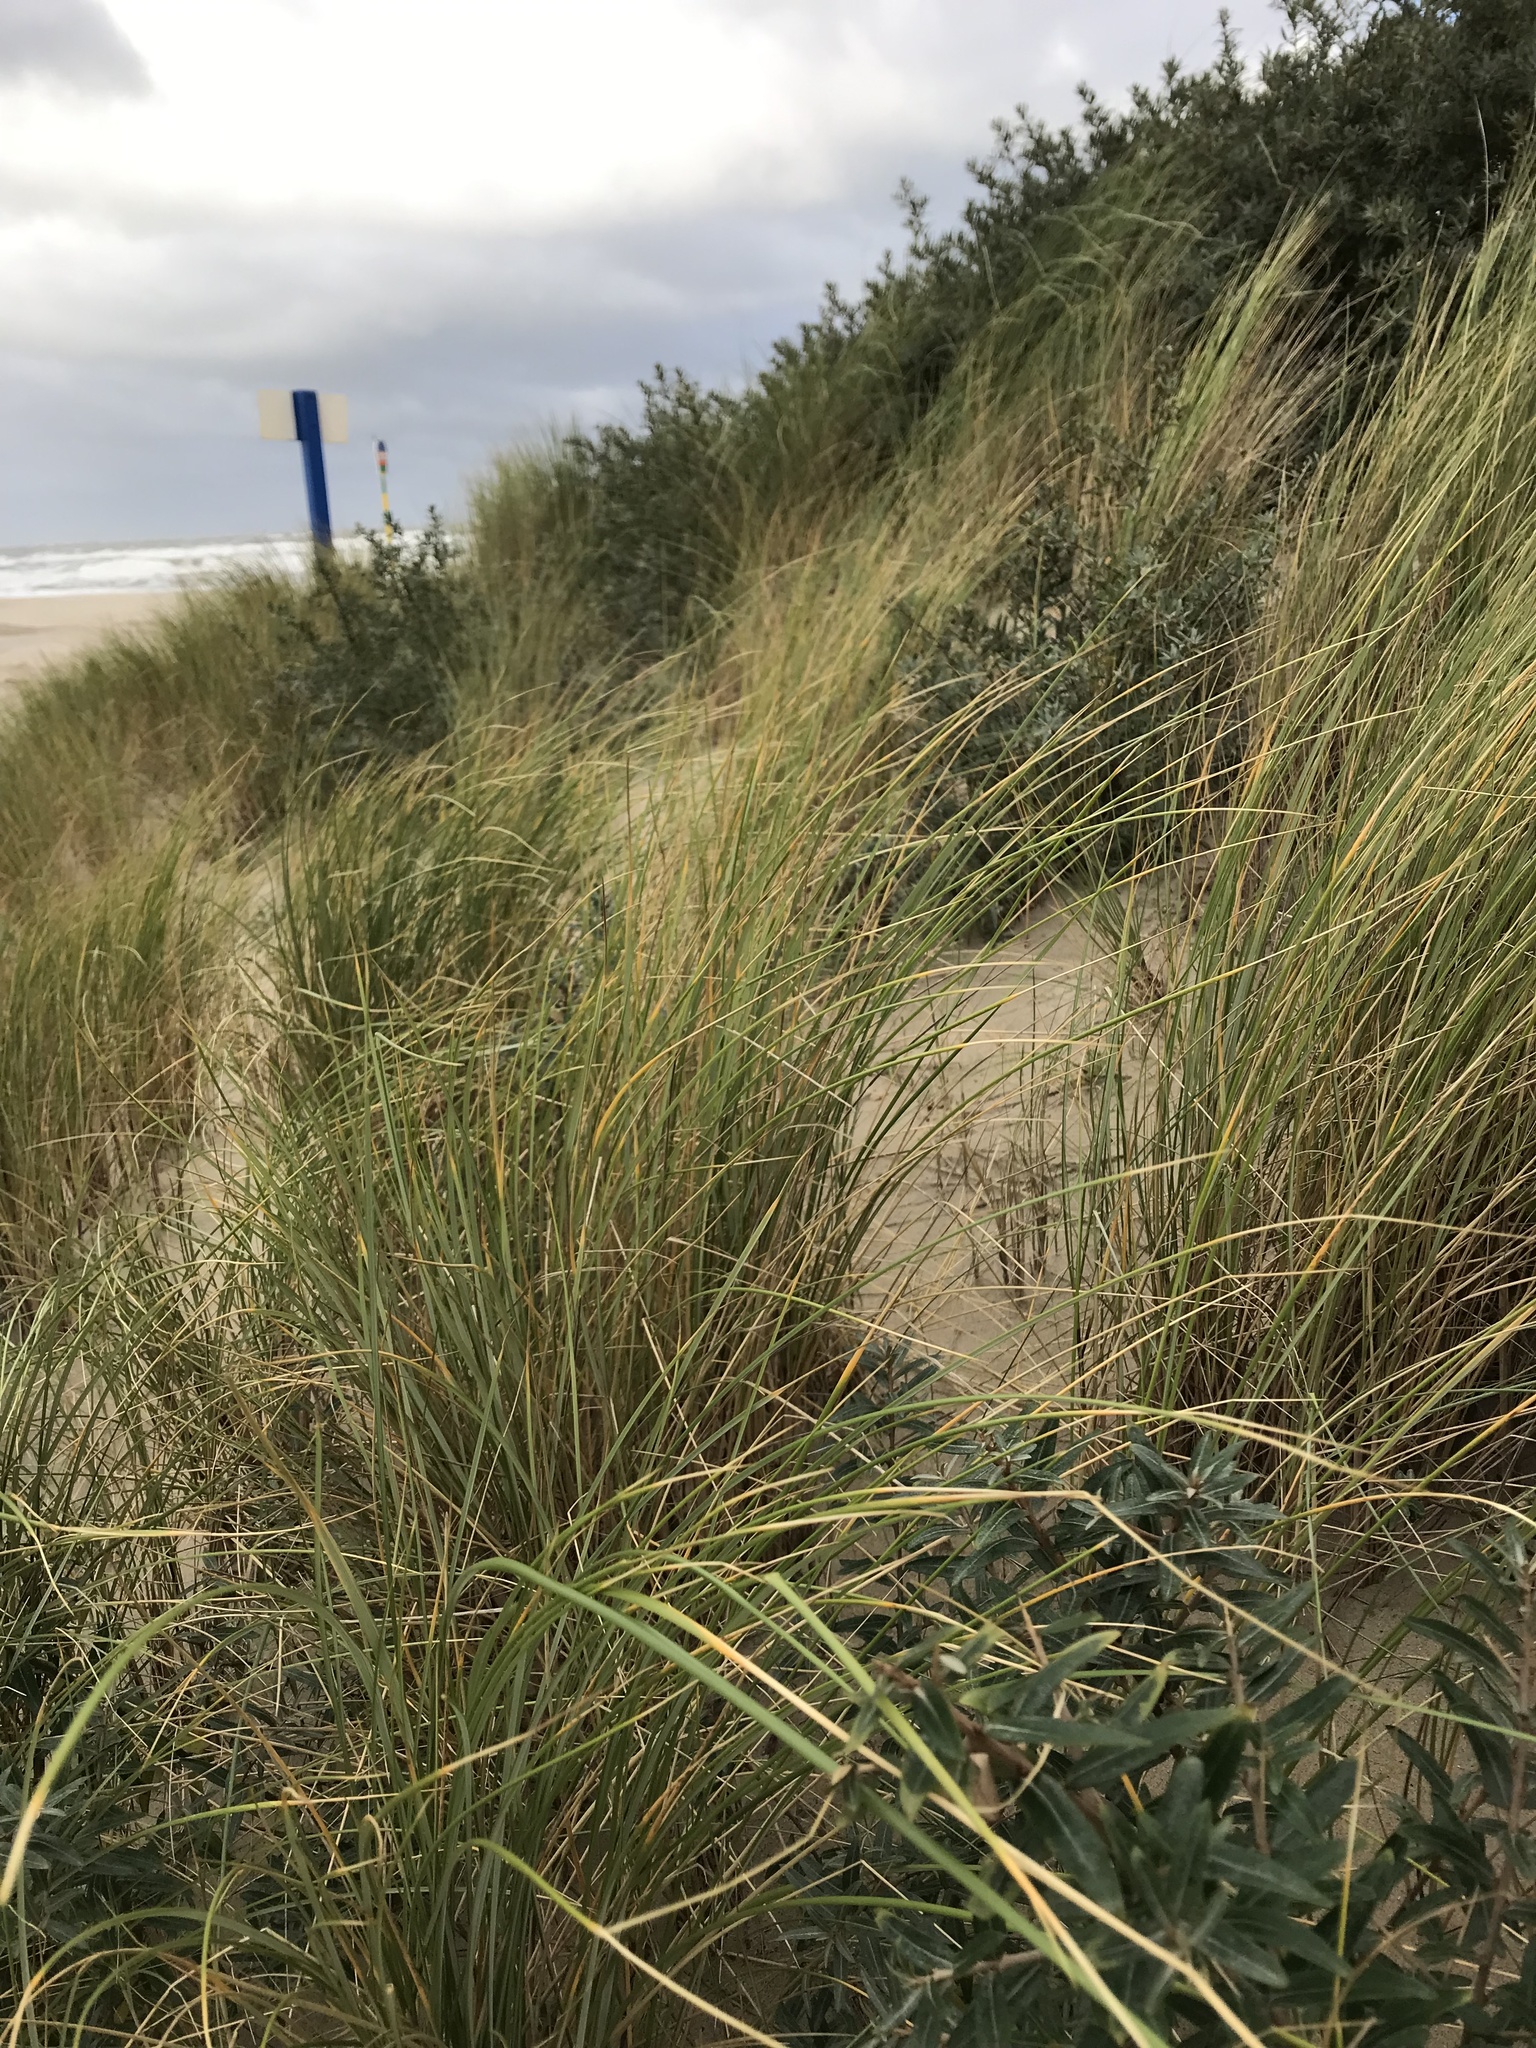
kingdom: Plantae
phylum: Tracheophyta
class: Liliopsida
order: Poales
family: Poaceae
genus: Calamagrostis
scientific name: Calamagrostis arenaria
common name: European beachgrass
